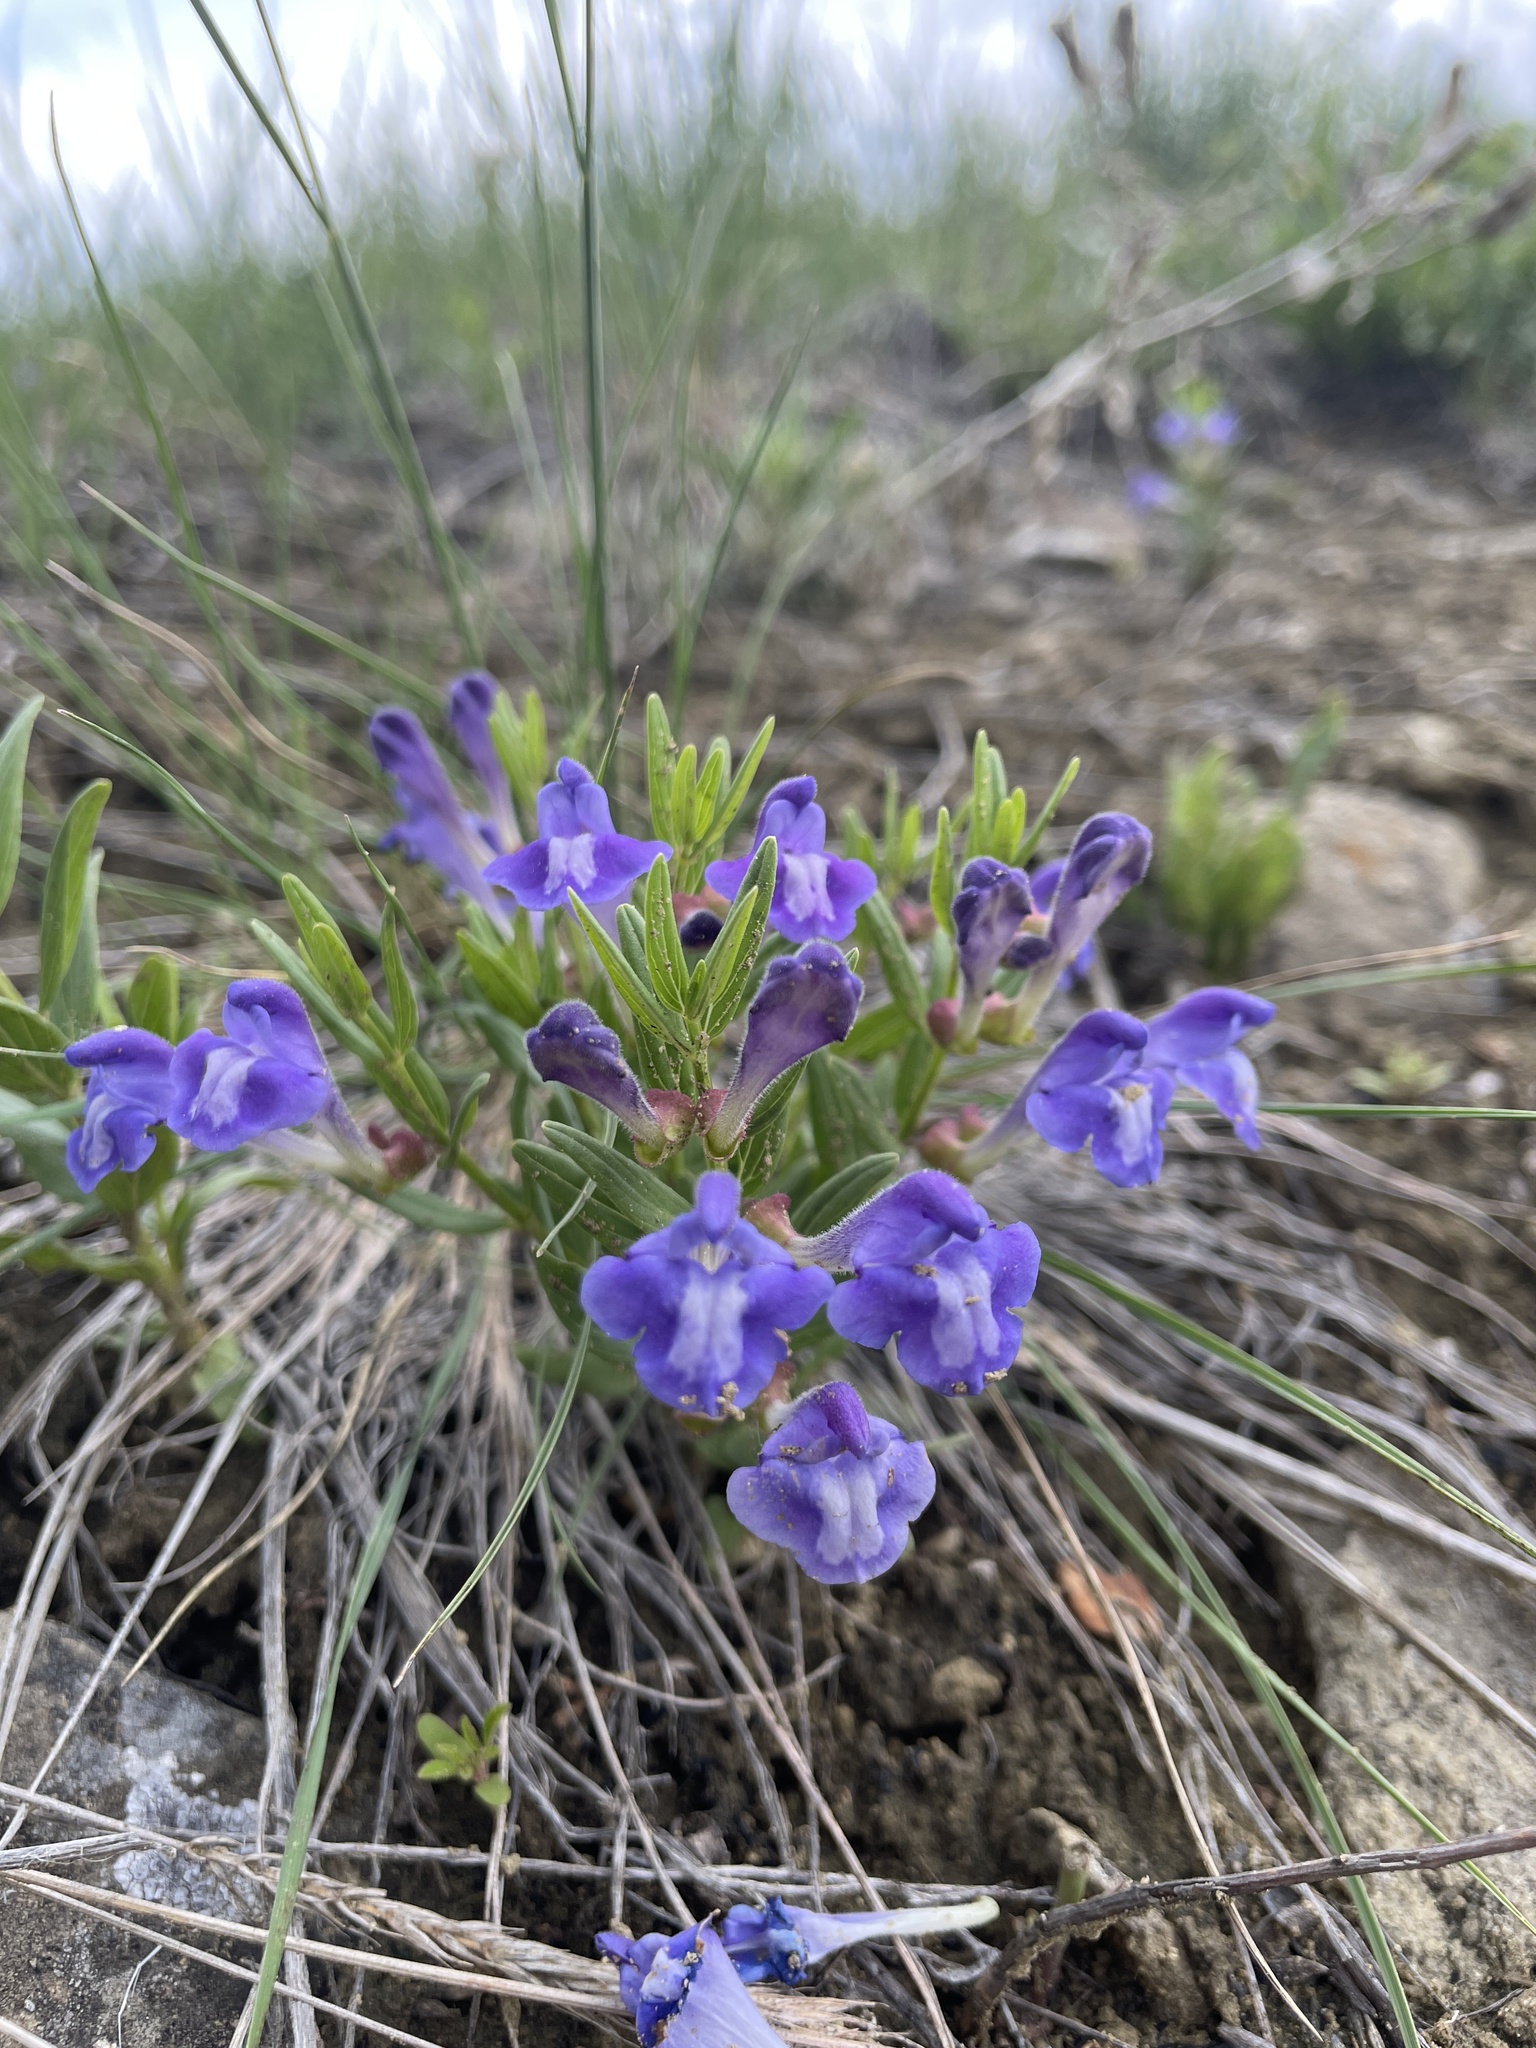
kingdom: Plantae
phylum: Tracheophyta
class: Magnoliopsida
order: Lamiales
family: Lamiaceae
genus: Scutellaria
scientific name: Scutellaria brittonii
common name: Britton's skullcap
